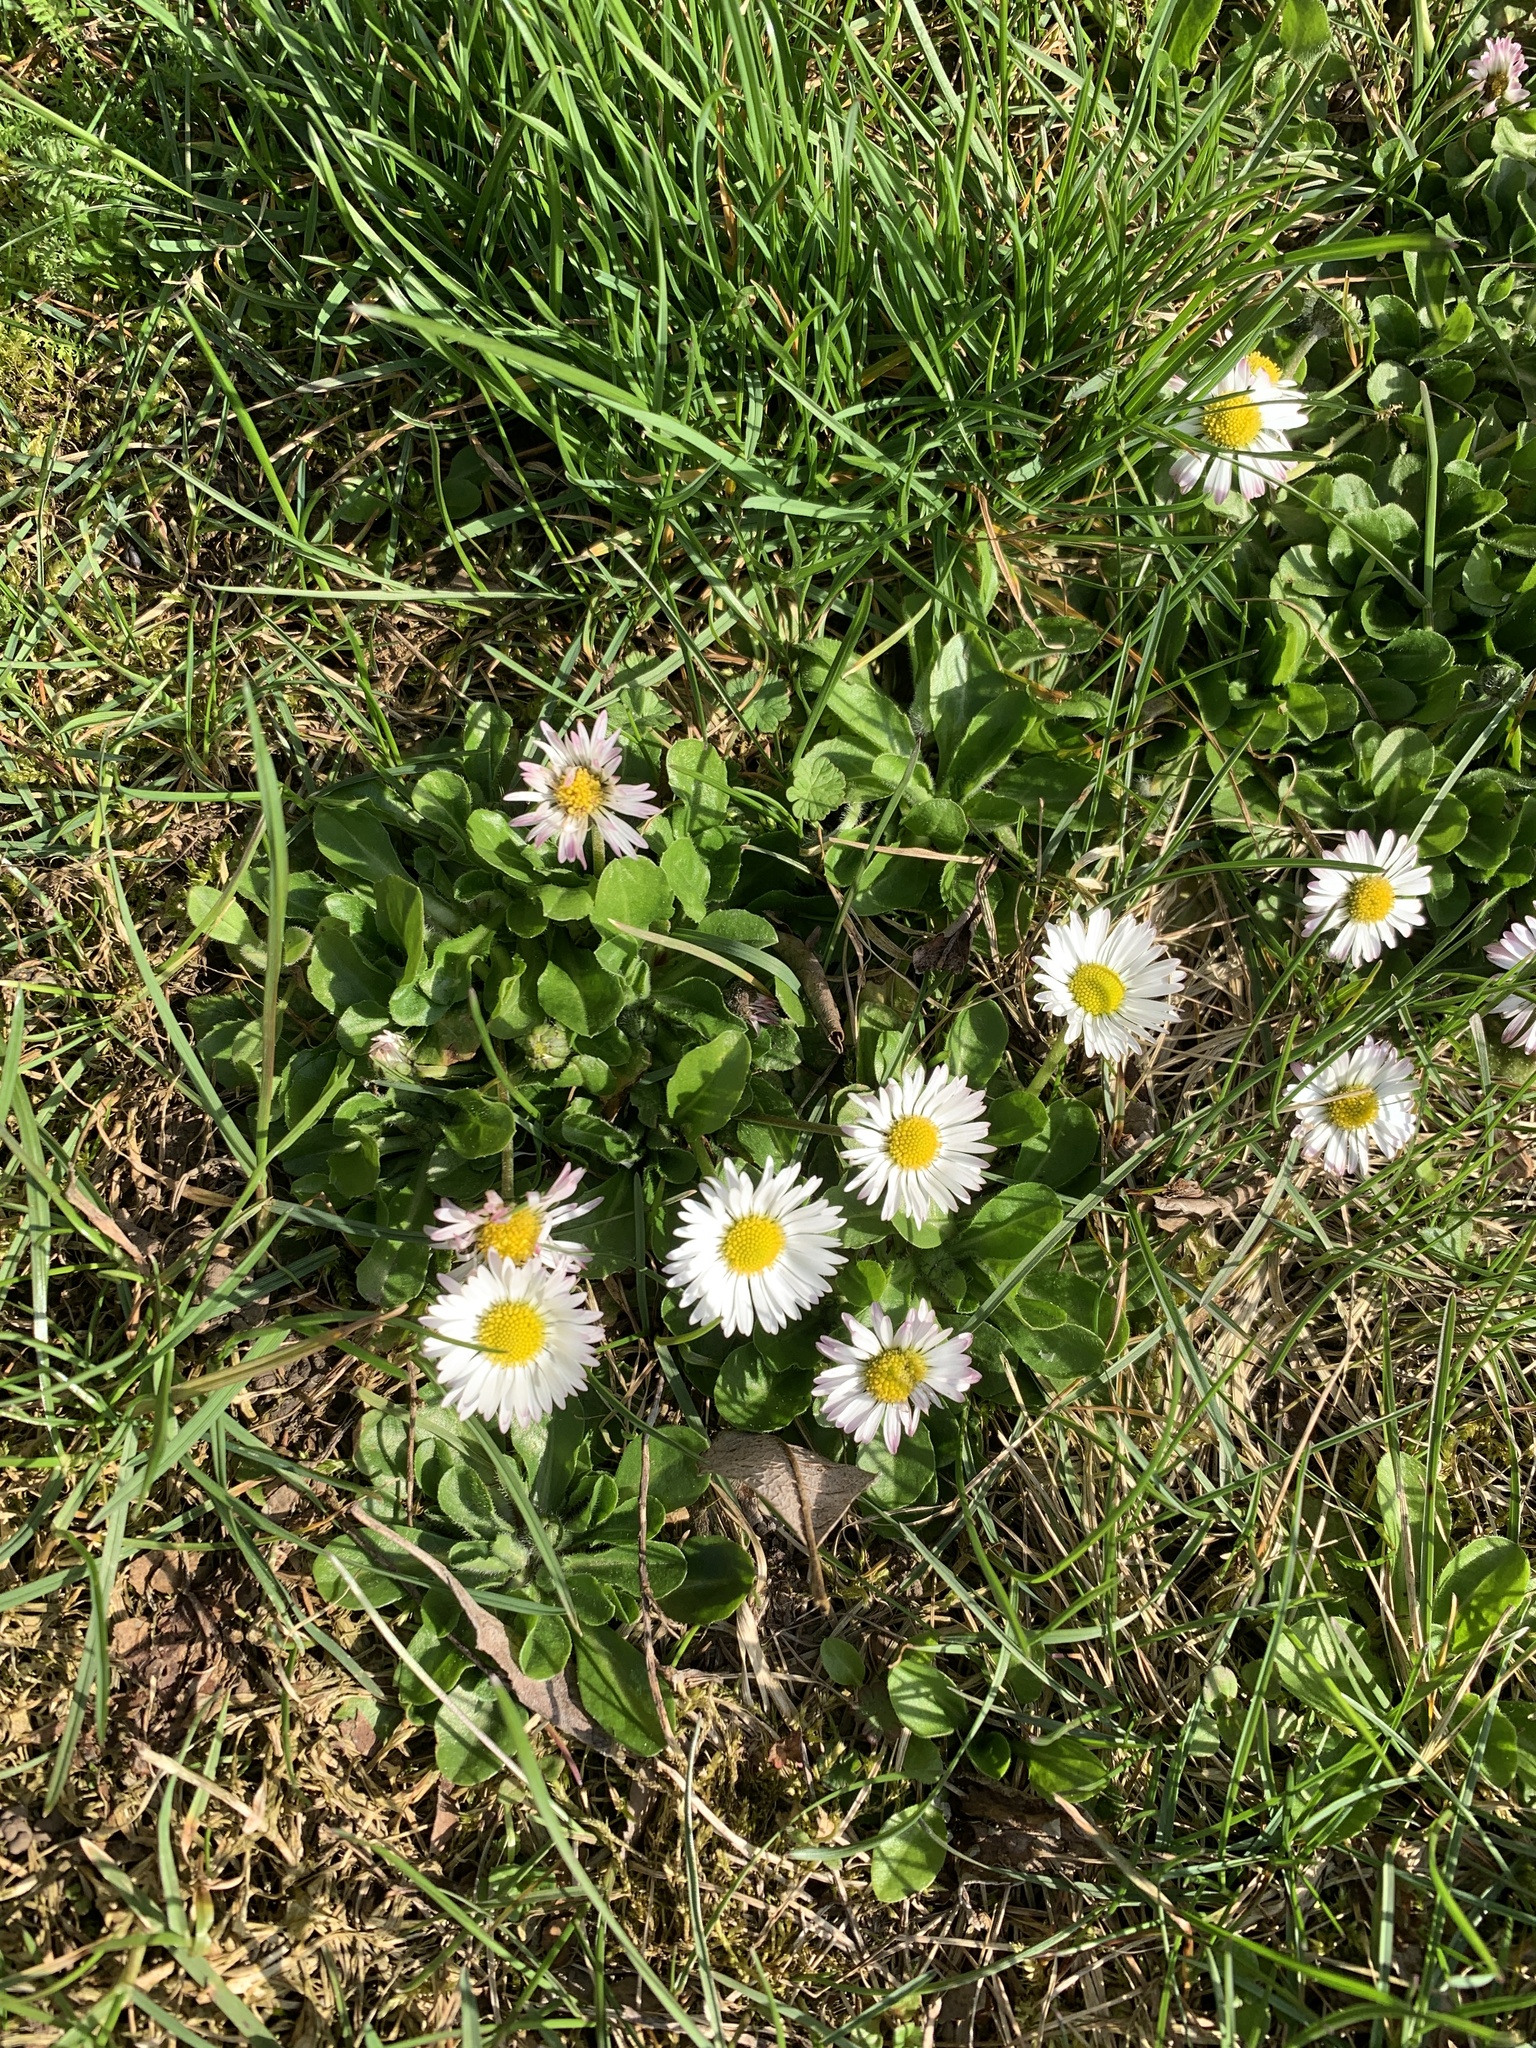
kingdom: Plantae
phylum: Tracheophyta
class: Magnoliopsida
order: Asterales
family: Asteraceae
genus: Bellis
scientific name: Bellis perennis
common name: Lawndaisy
